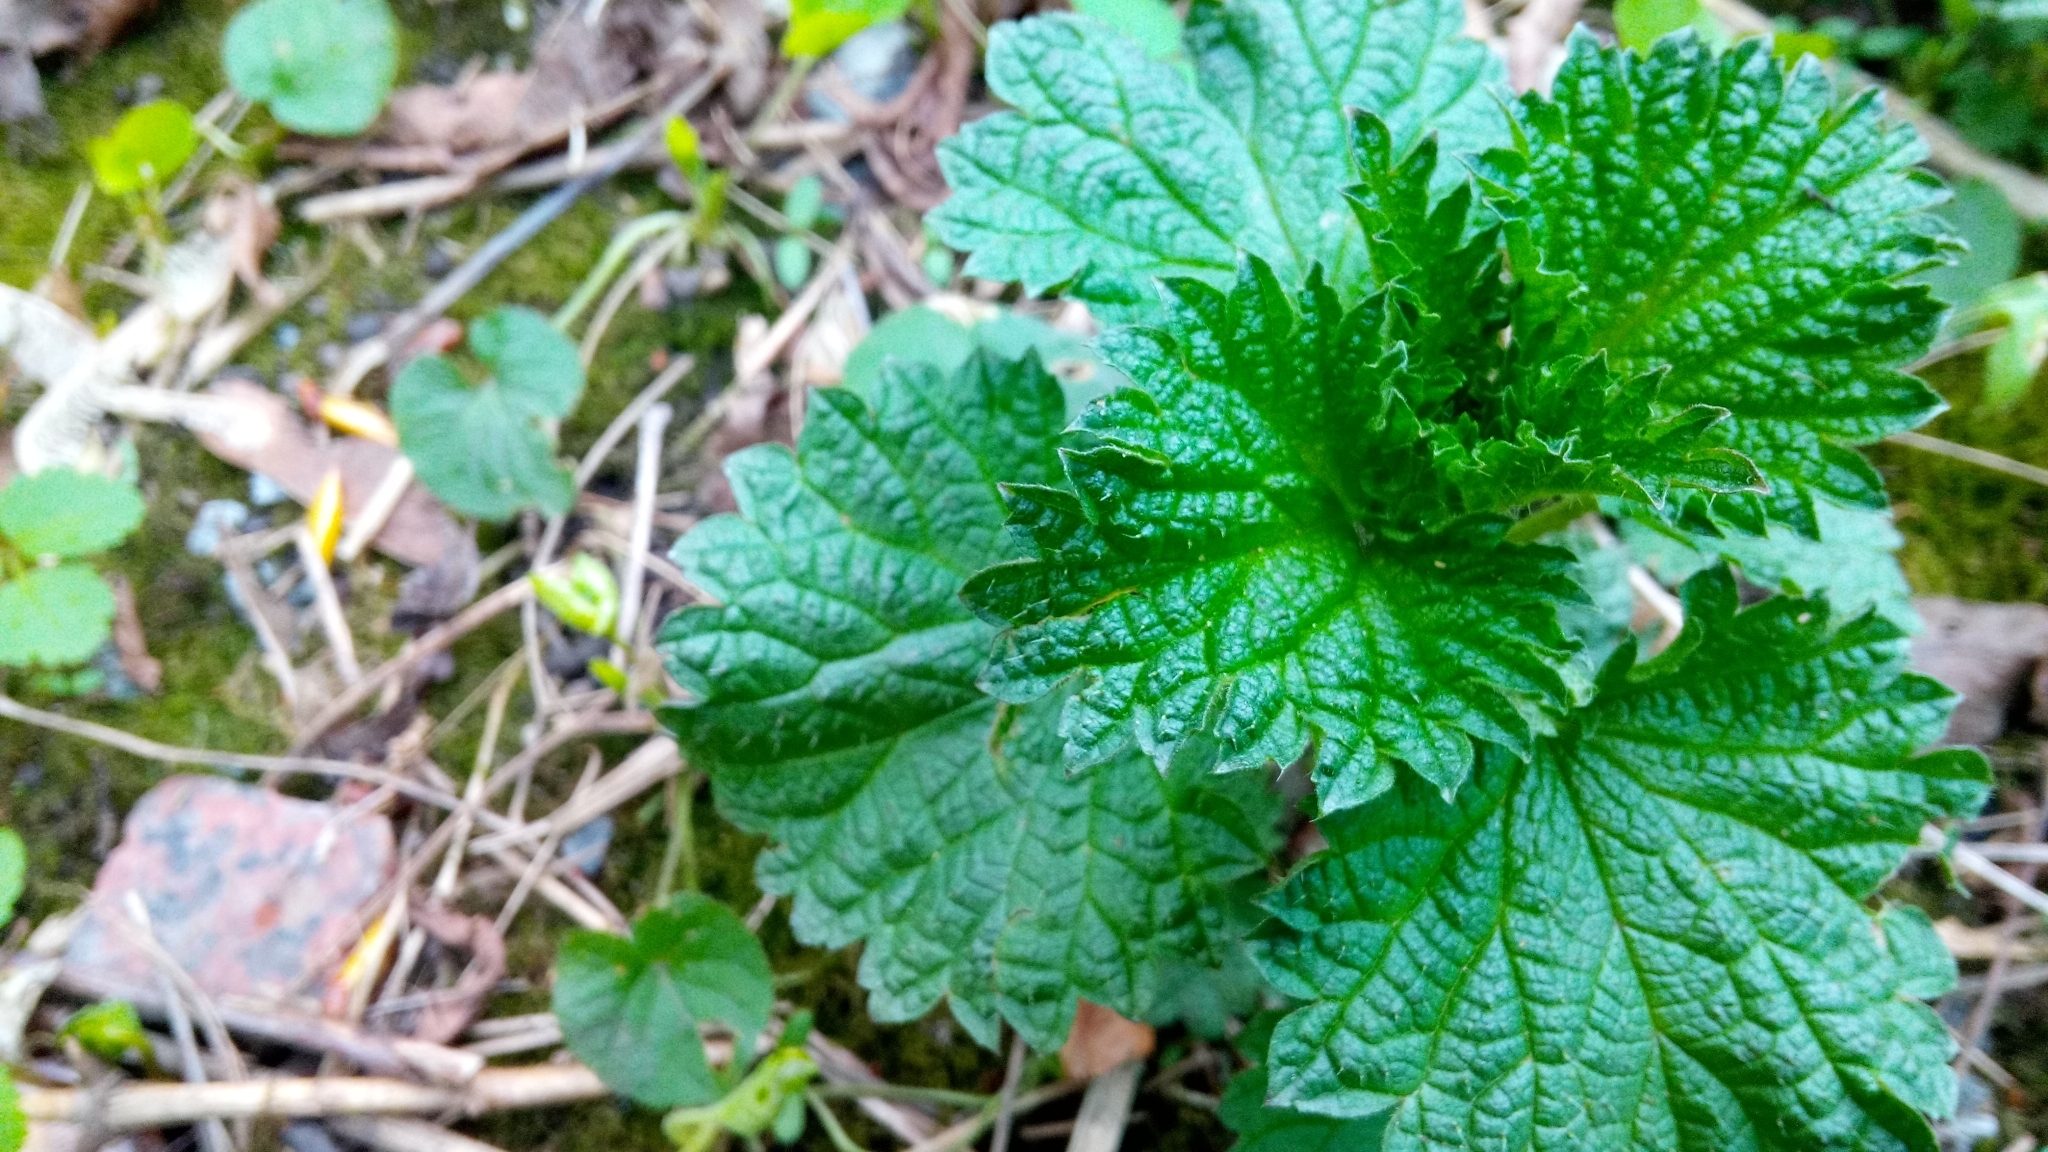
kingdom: Plantae
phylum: Tracheophyta
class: Magnoliopsida
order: Rosales
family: Urticaceae
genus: Urtica
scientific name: Urtica dioica
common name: Common nettle
